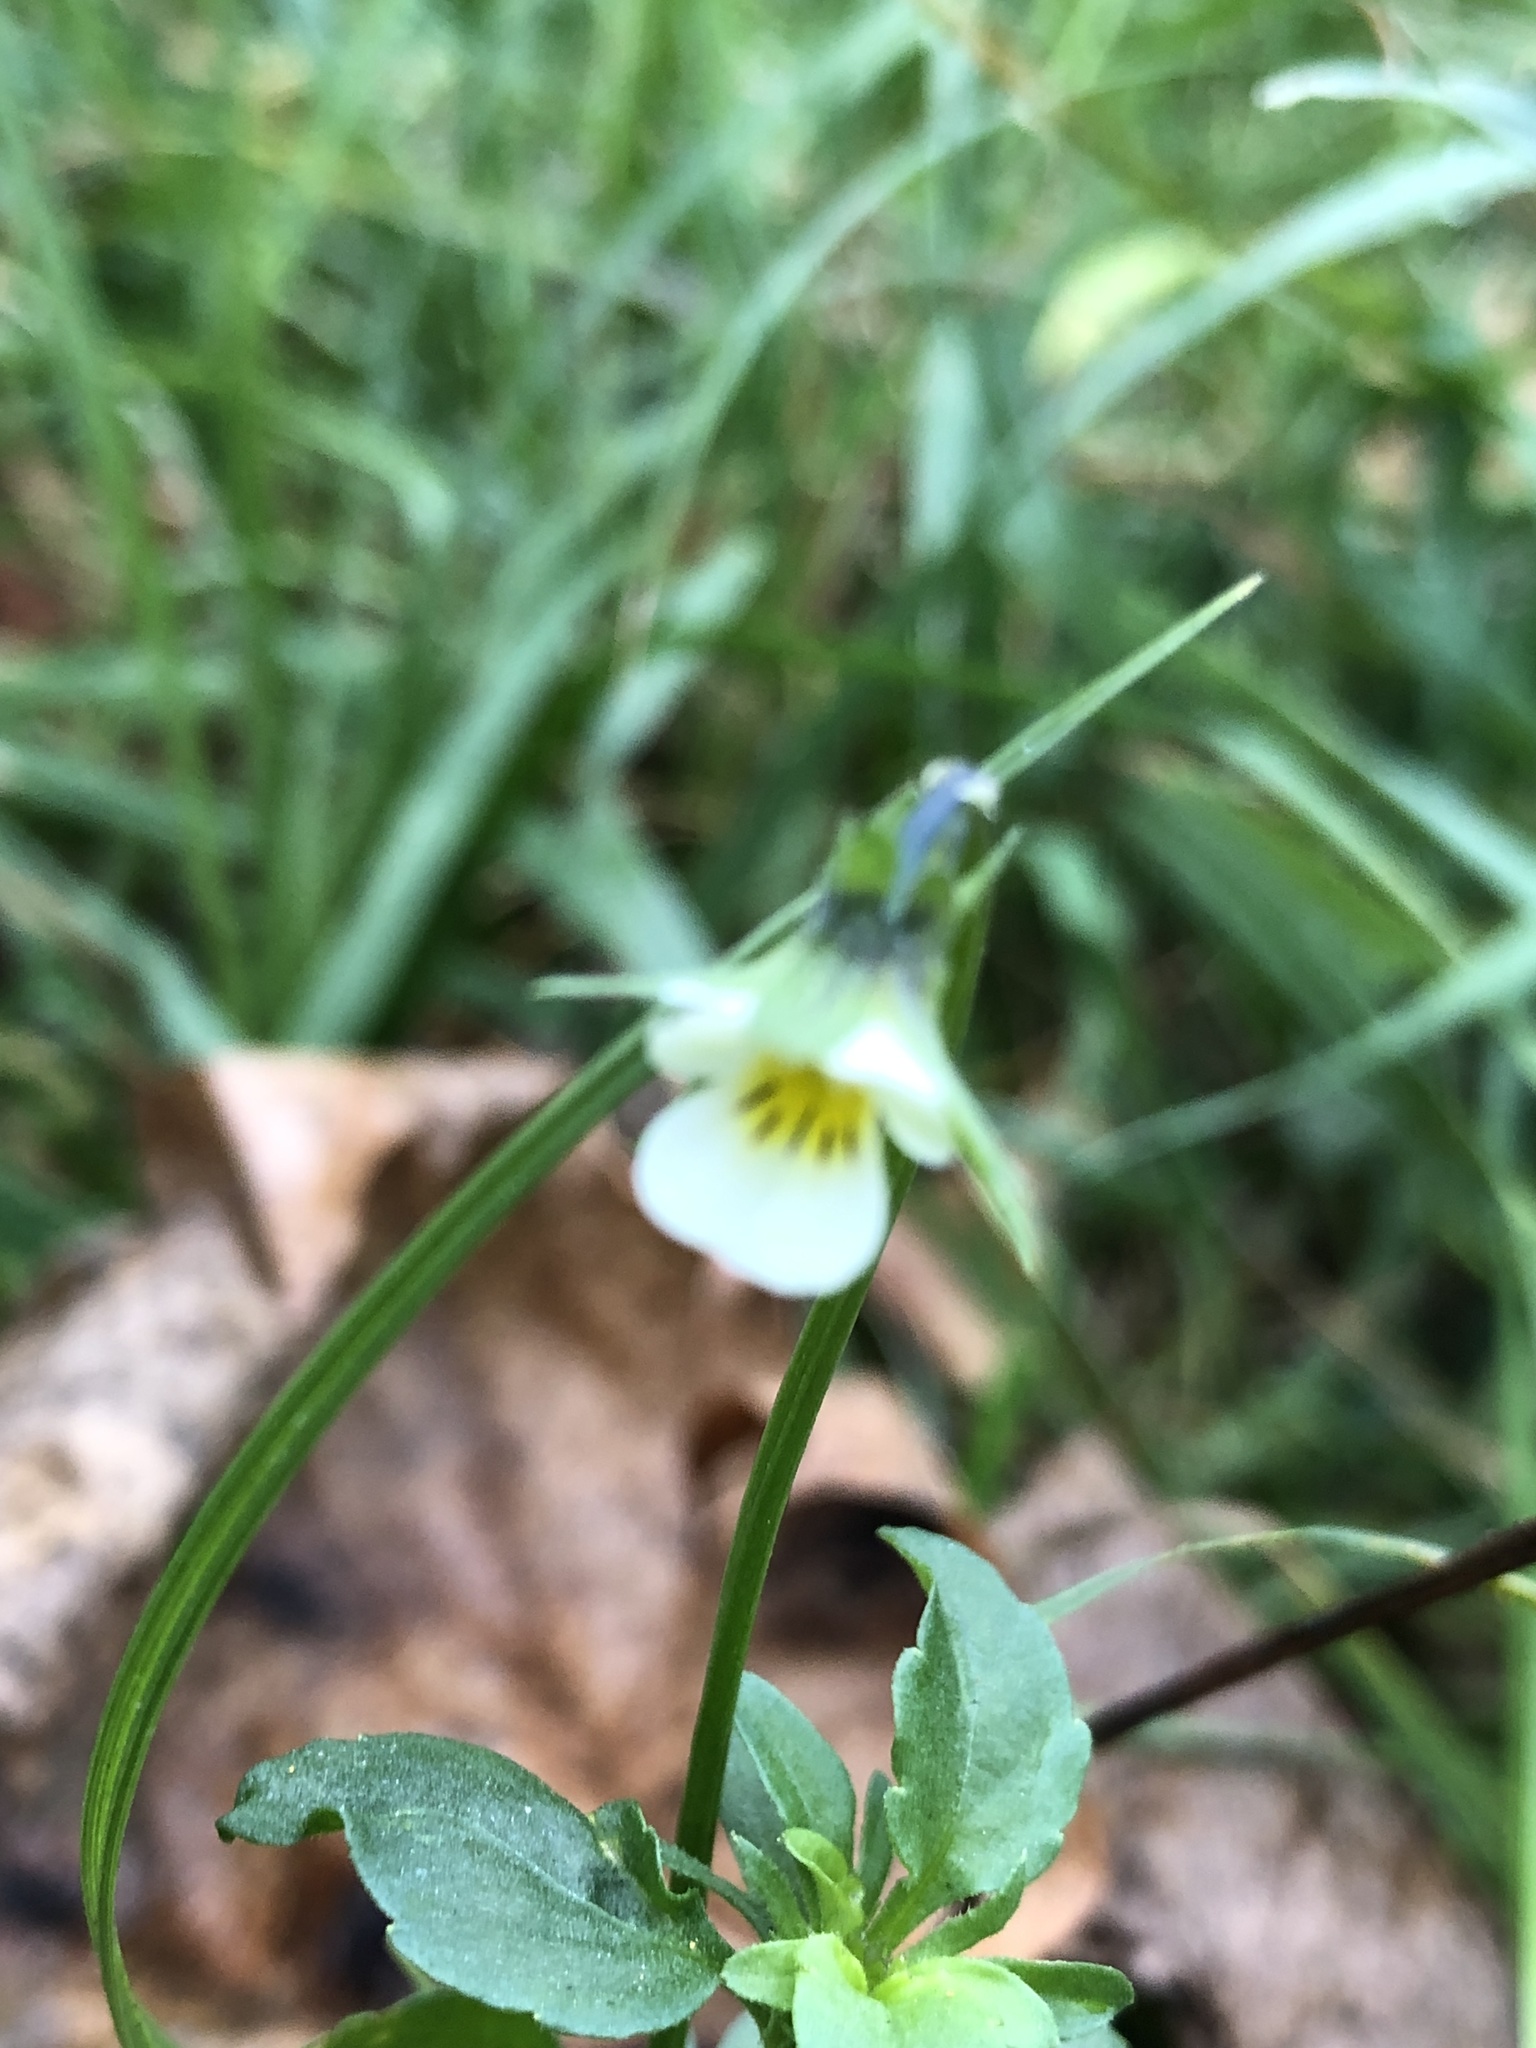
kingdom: Plantae
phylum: Tracheophyta
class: Magnoliopsida
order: Malpighiales
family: Violaceae
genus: Viola
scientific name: Viola arvensis
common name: Field pansy
